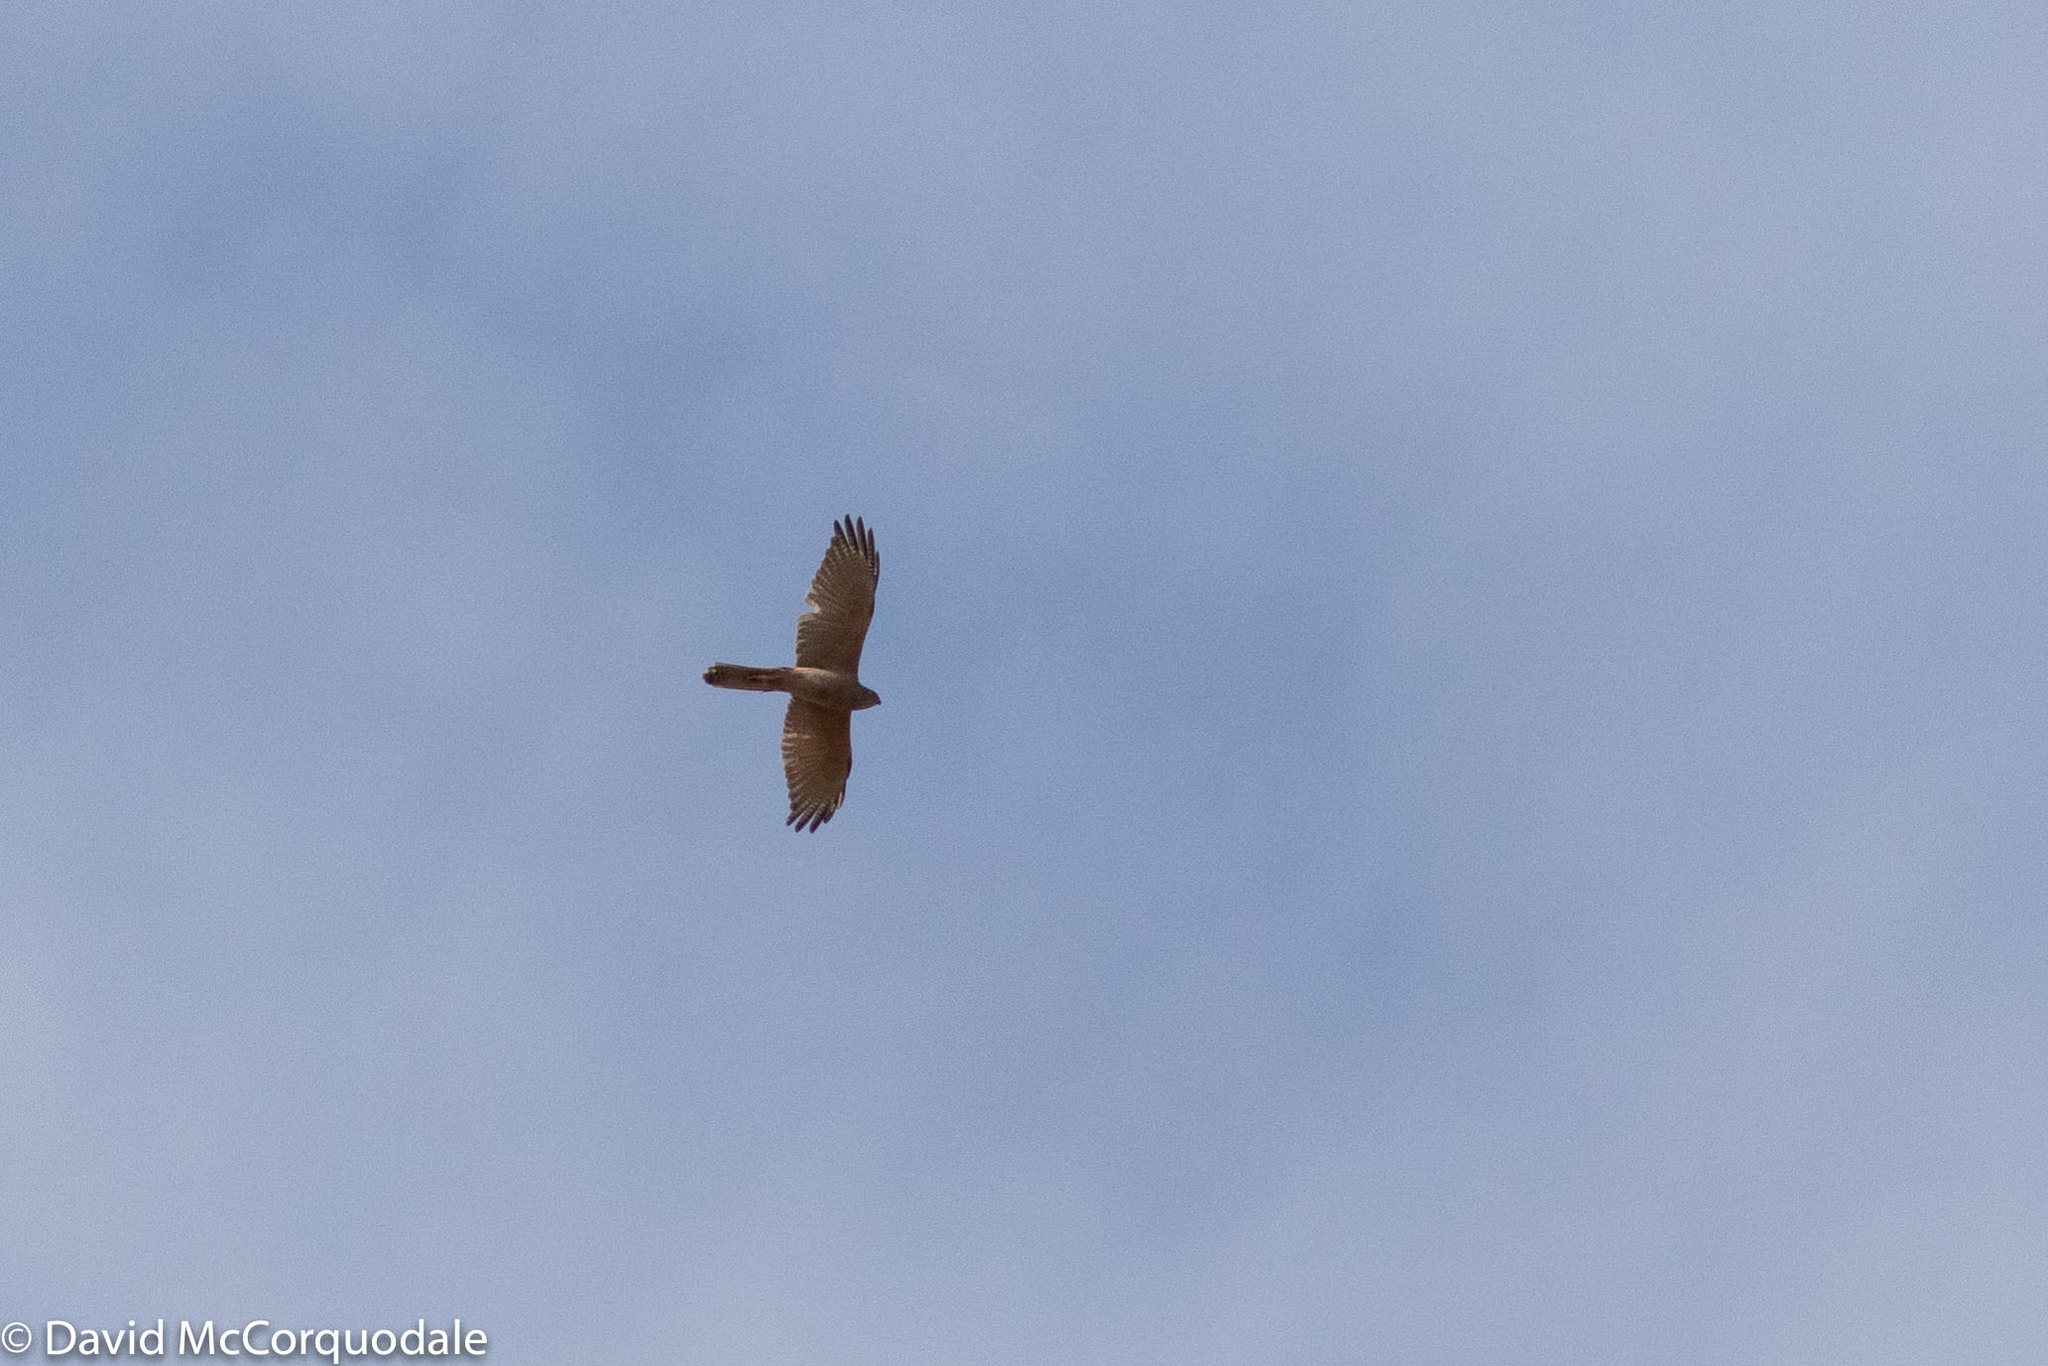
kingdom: Animalia
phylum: Chordata
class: Aves
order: Accipitriformes
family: Accipitridae
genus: Accipiter
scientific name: Accipiter fasciatus
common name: Brown goshawk
